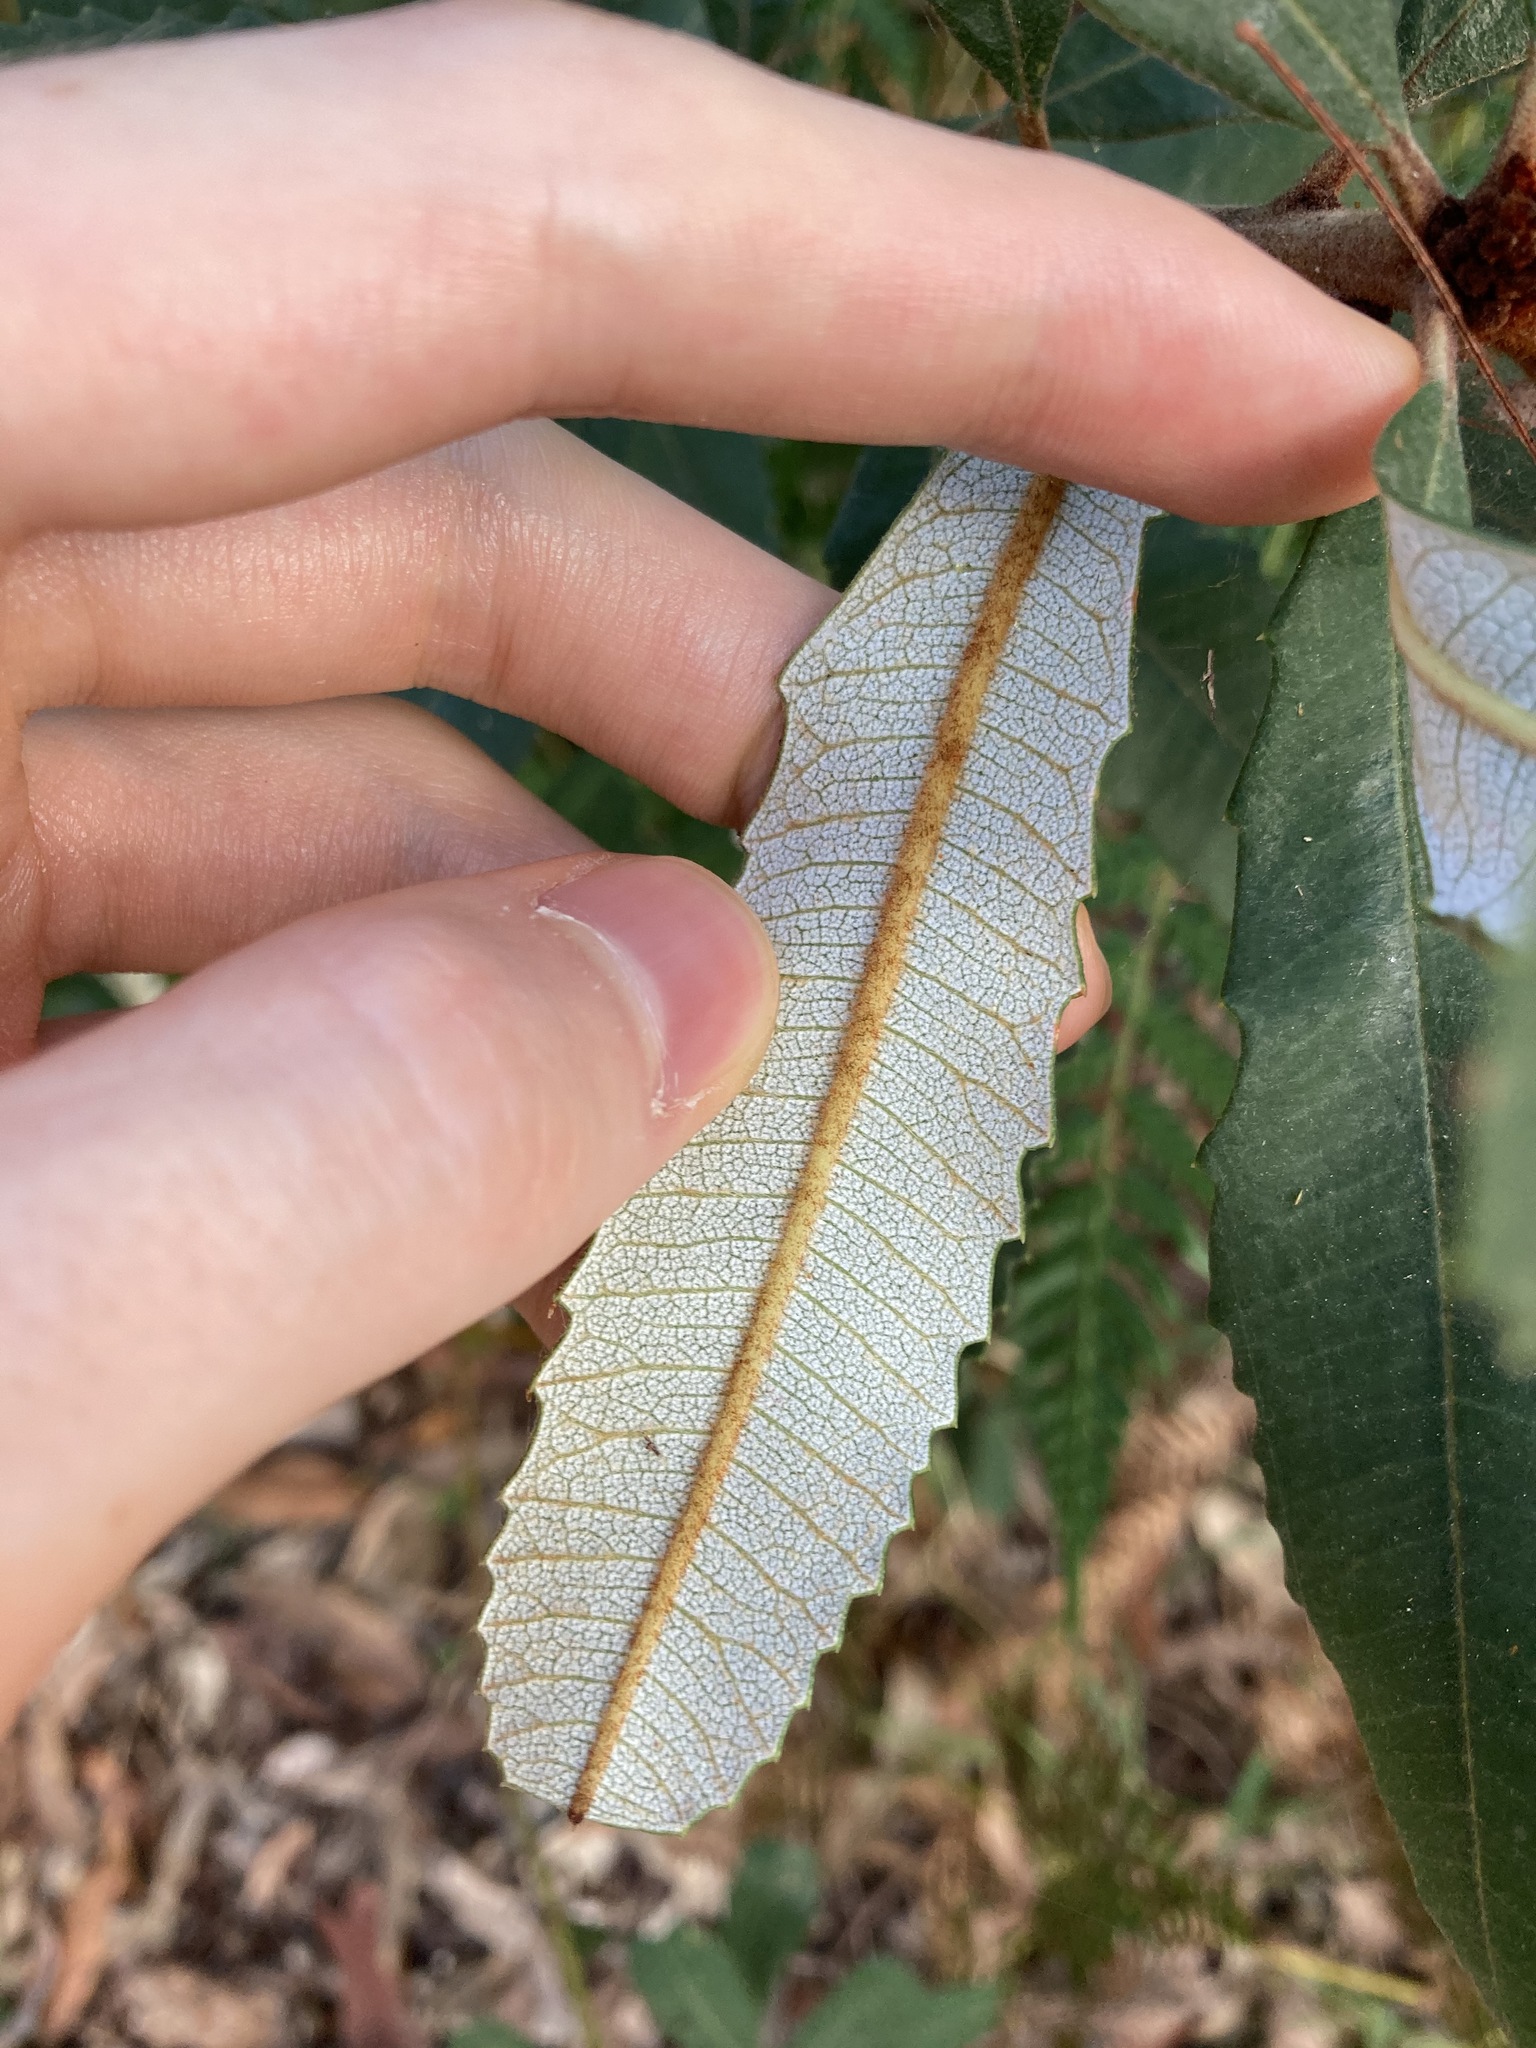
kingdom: Plantae
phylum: Tracheophyta
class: Magnoliopsida
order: Proteales
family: Proteaceae
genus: Banksia
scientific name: Banksia oblongifolia
